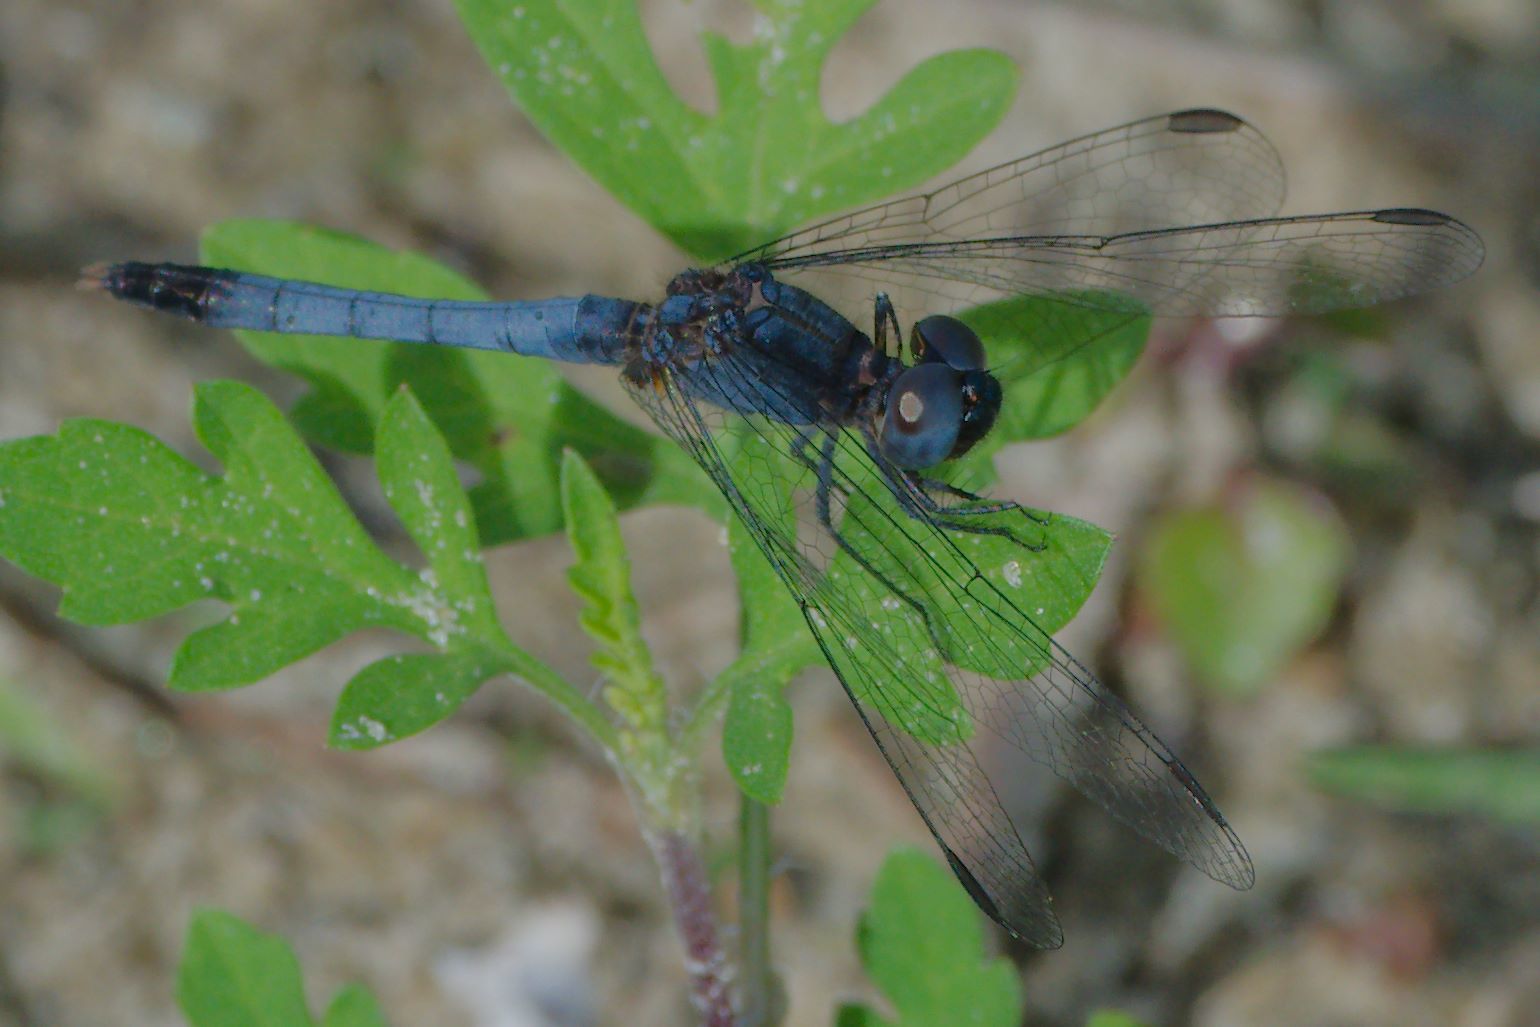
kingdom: Animalia
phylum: Arthropoda
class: Insecta
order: Odonata
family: Libellulidae
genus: Erythrodiplax
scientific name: Erythrodiplax minuscula
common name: Little blue dragonlet
